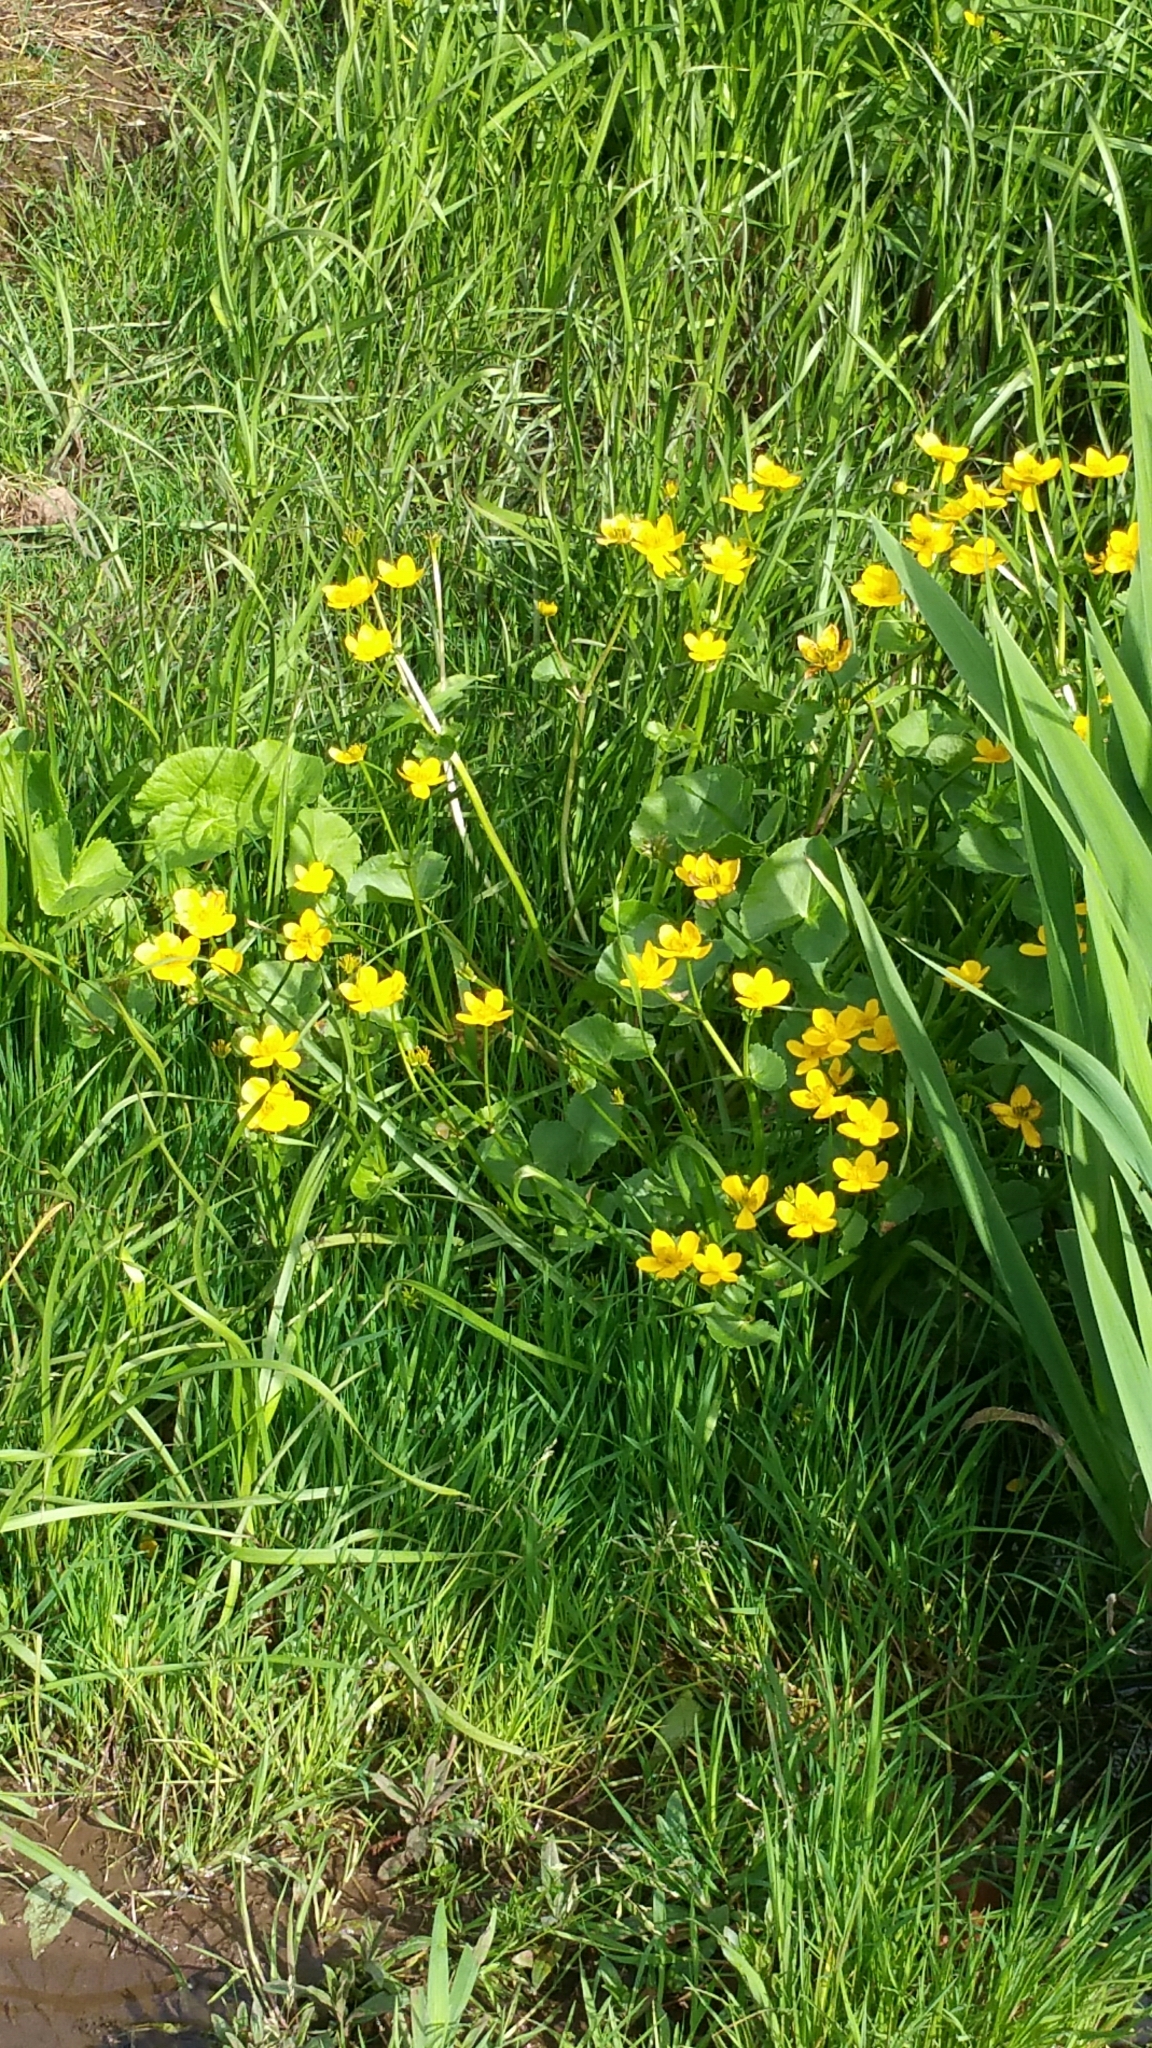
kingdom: Plantae
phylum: Tracheophyta
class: Magnoliopsida
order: Ranunculales
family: Ranunculaceae
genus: Caltha
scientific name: Caltha palustris
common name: Marsh marigold
